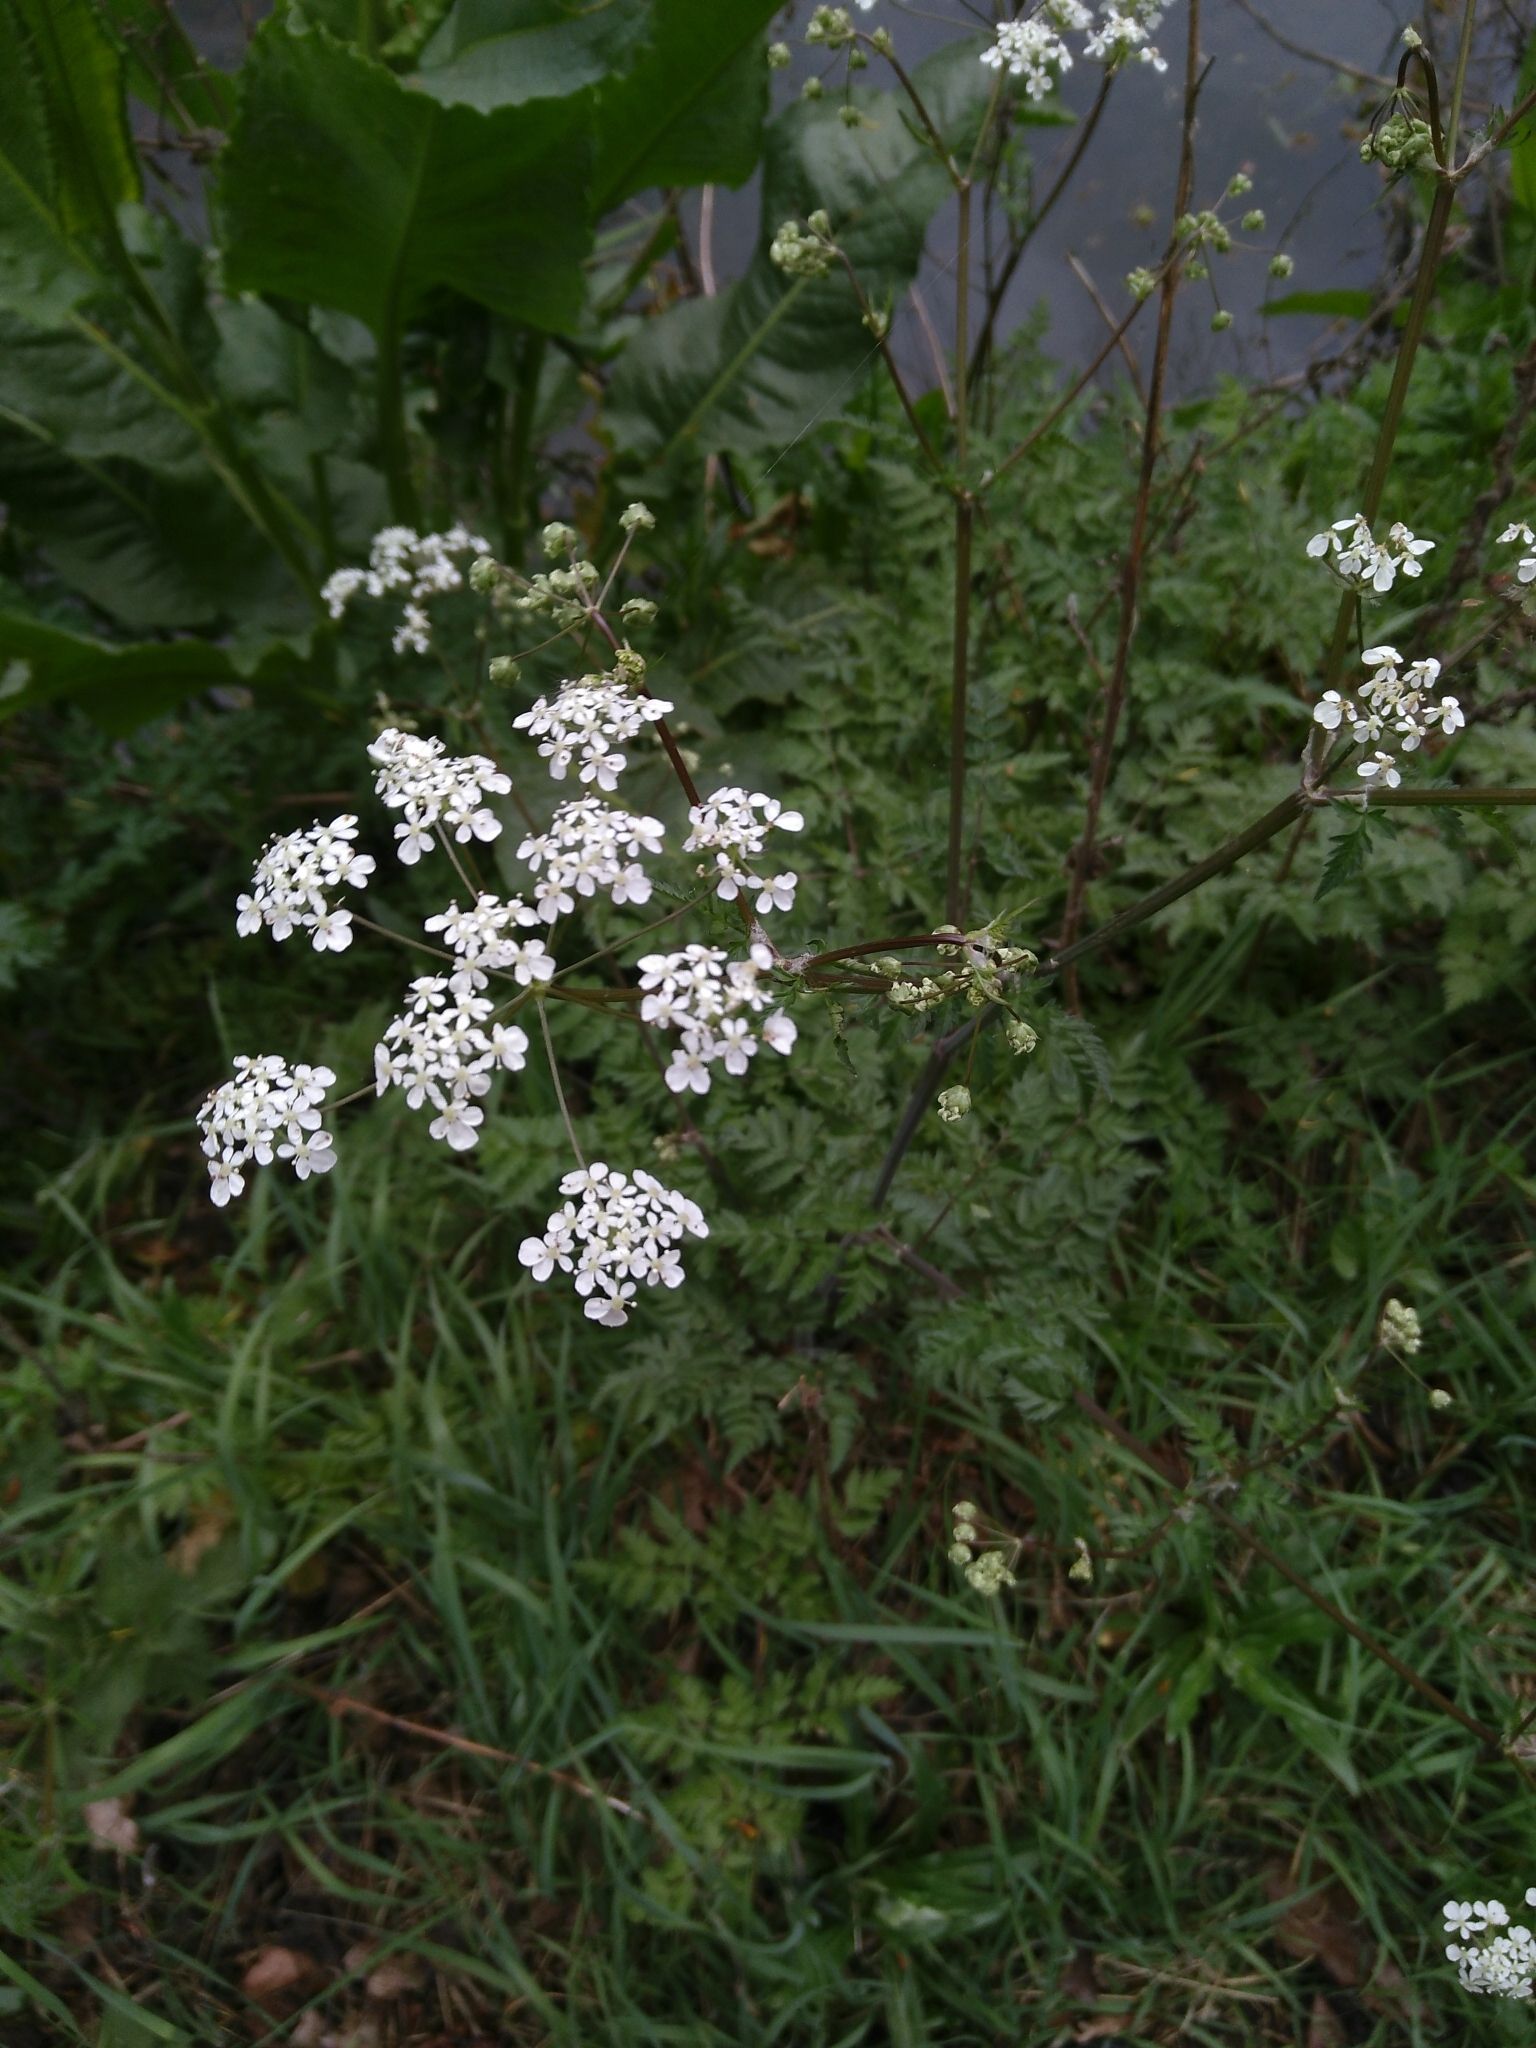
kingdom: Plantae
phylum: Tracheophyta
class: Magnoliopsida
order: Apiales
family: Apiaceae
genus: Anthriscus
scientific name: Anthriscus sylvestris
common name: Cow parsley
